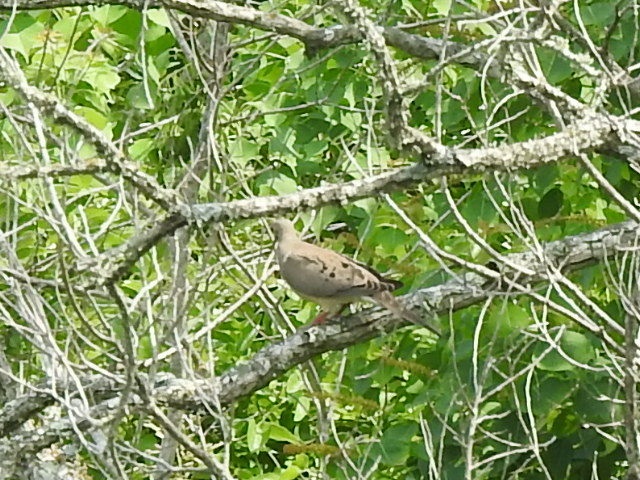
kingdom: Animalia
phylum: Chordata
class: Aves
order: Columbiformes
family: Columbidae
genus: Zenaida
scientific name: Zenaida macroura
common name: Mourning dove
